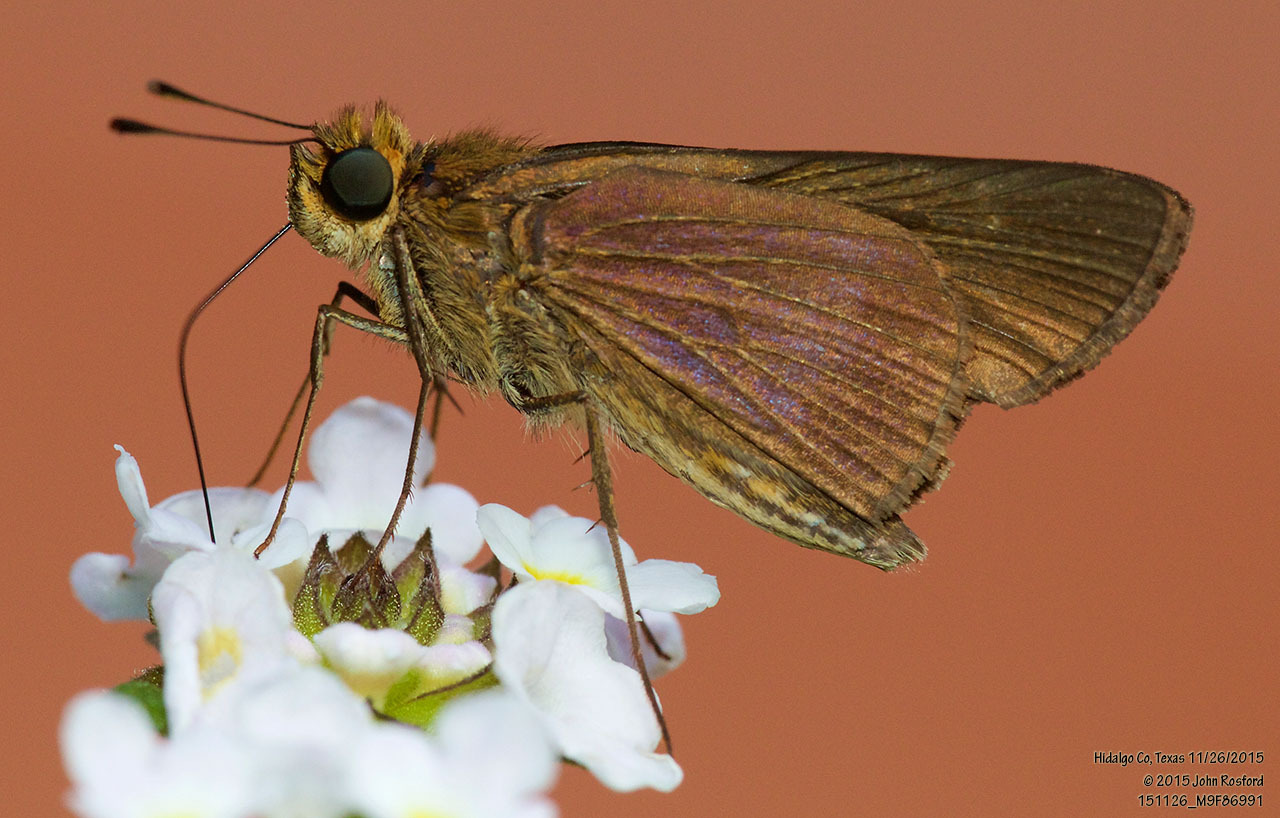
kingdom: Animalia
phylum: Arthropoda
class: Insecta
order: Lepidoptera
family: Hesperiidae
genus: Panoquina
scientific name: Panoquina ocola
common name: Ocola skipper
